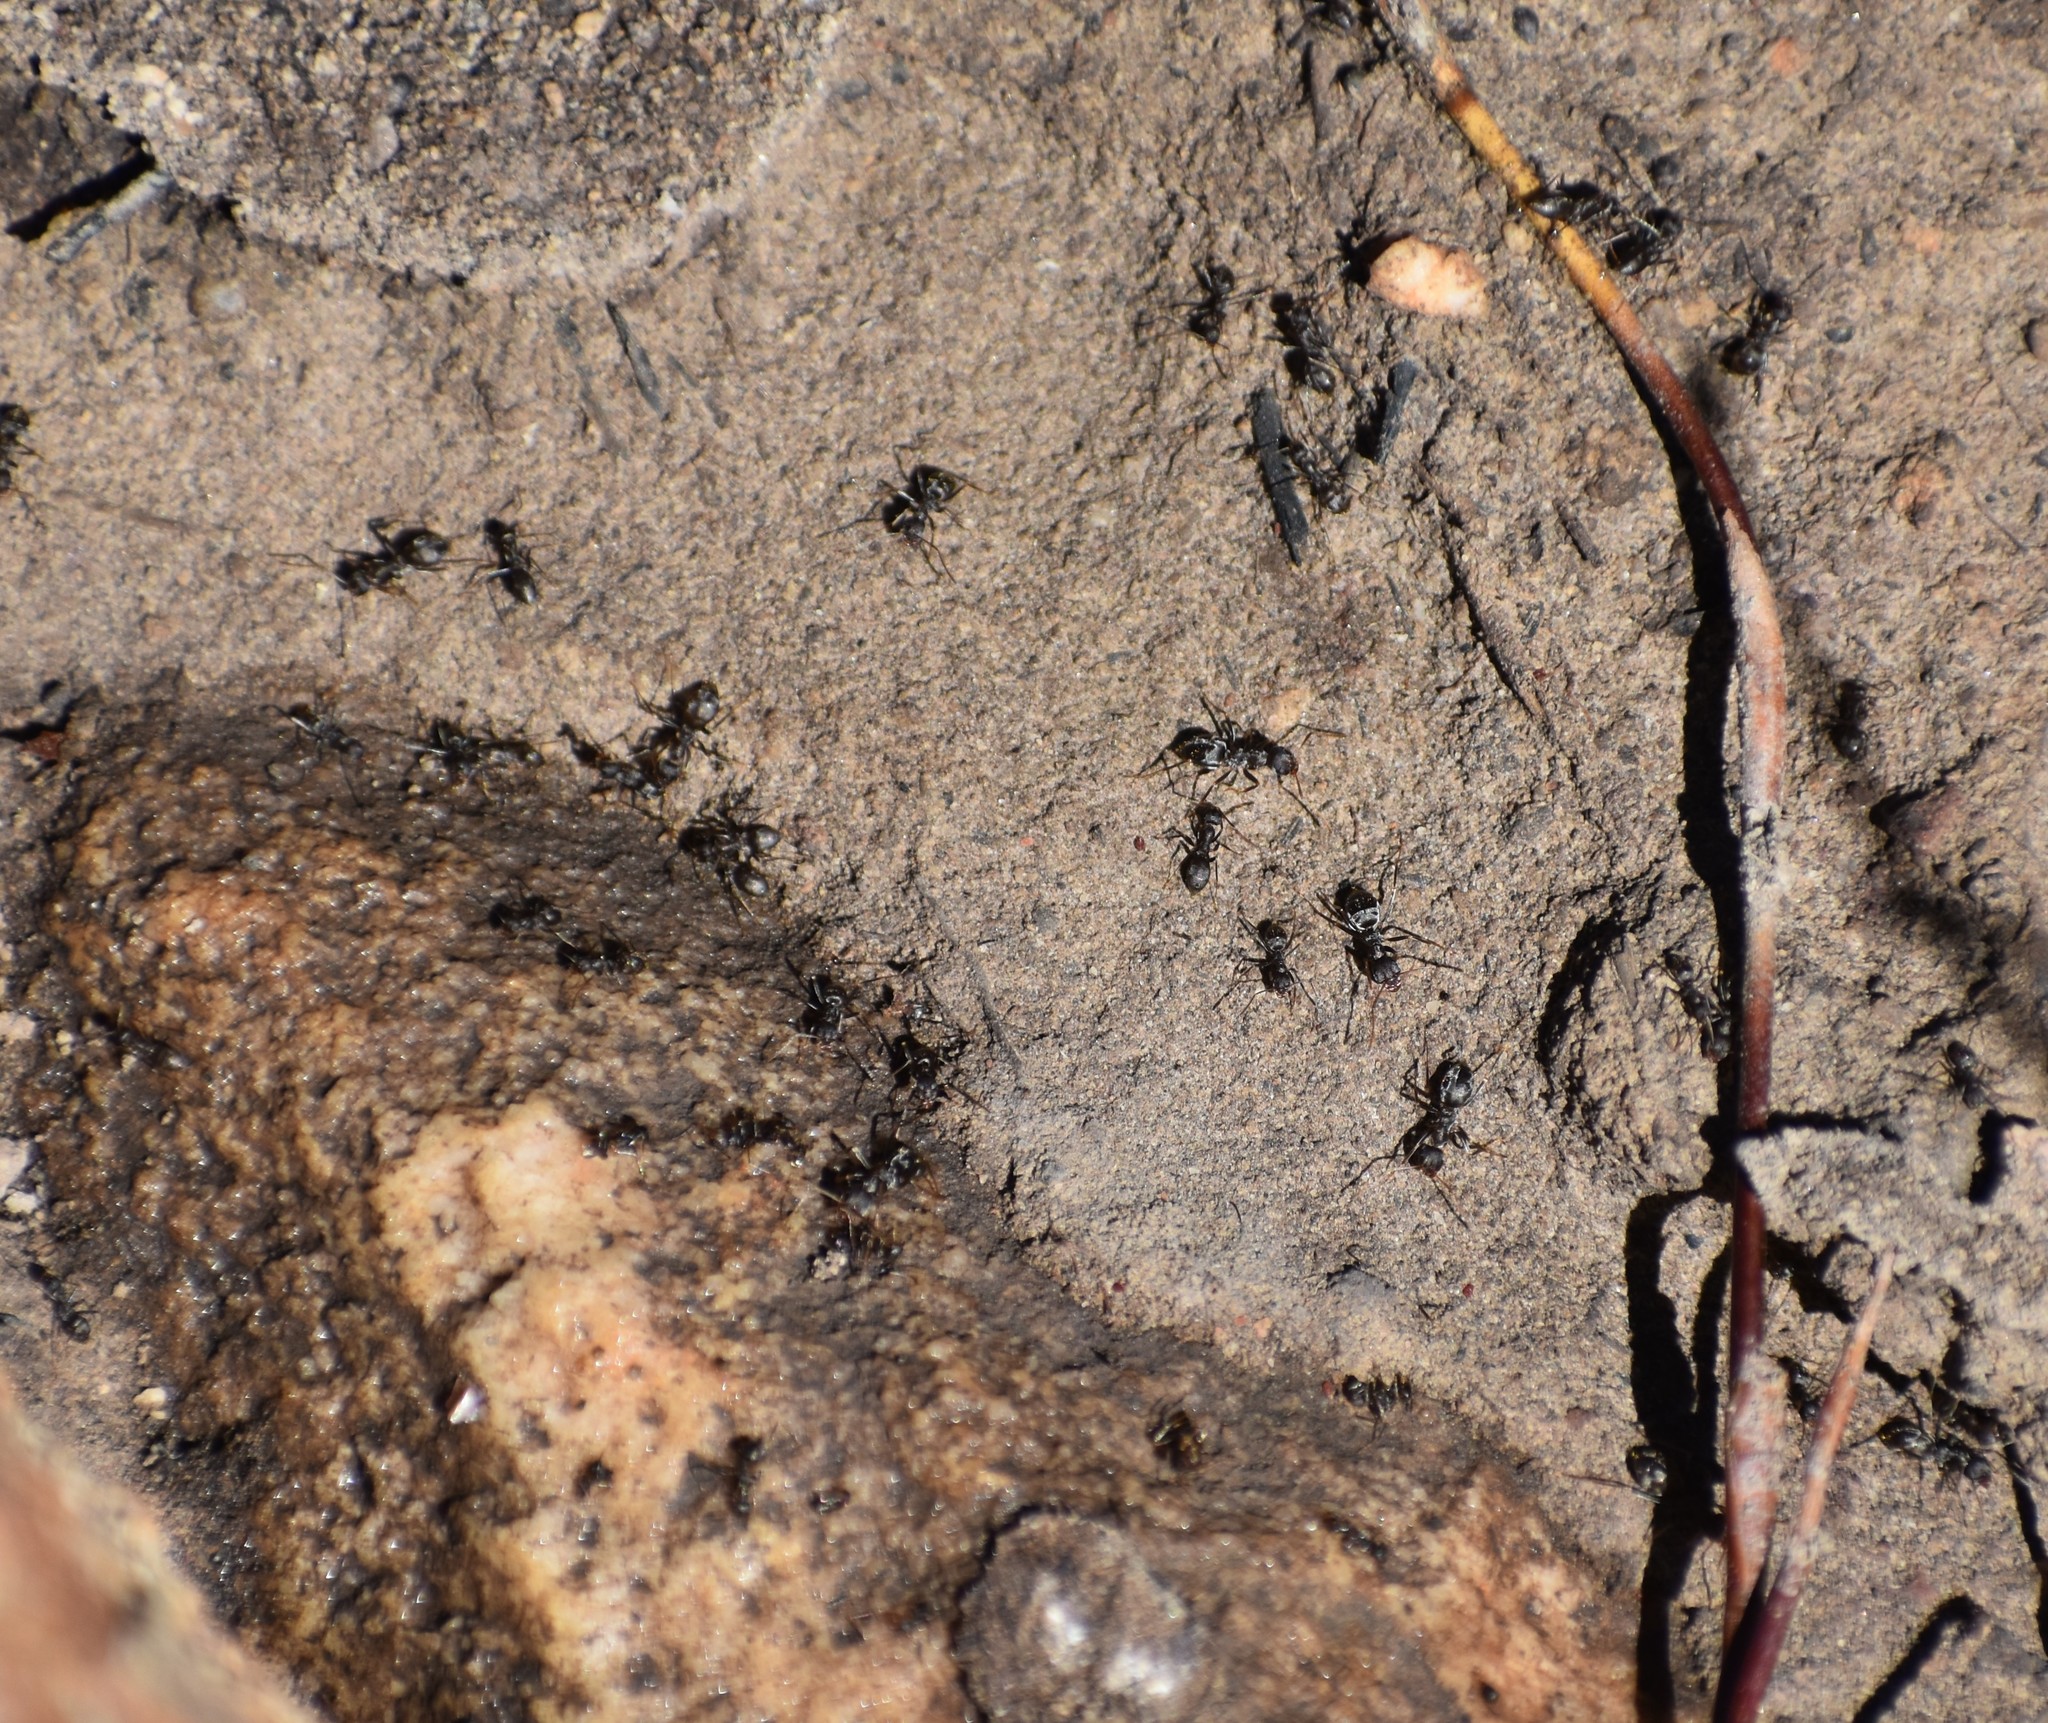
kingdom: Animalia
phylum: Arthropoda
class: Insecta
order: Hymenoptera
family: Formicidae
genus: Anoplolepis
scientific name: Anoplolepis steingroeveri
